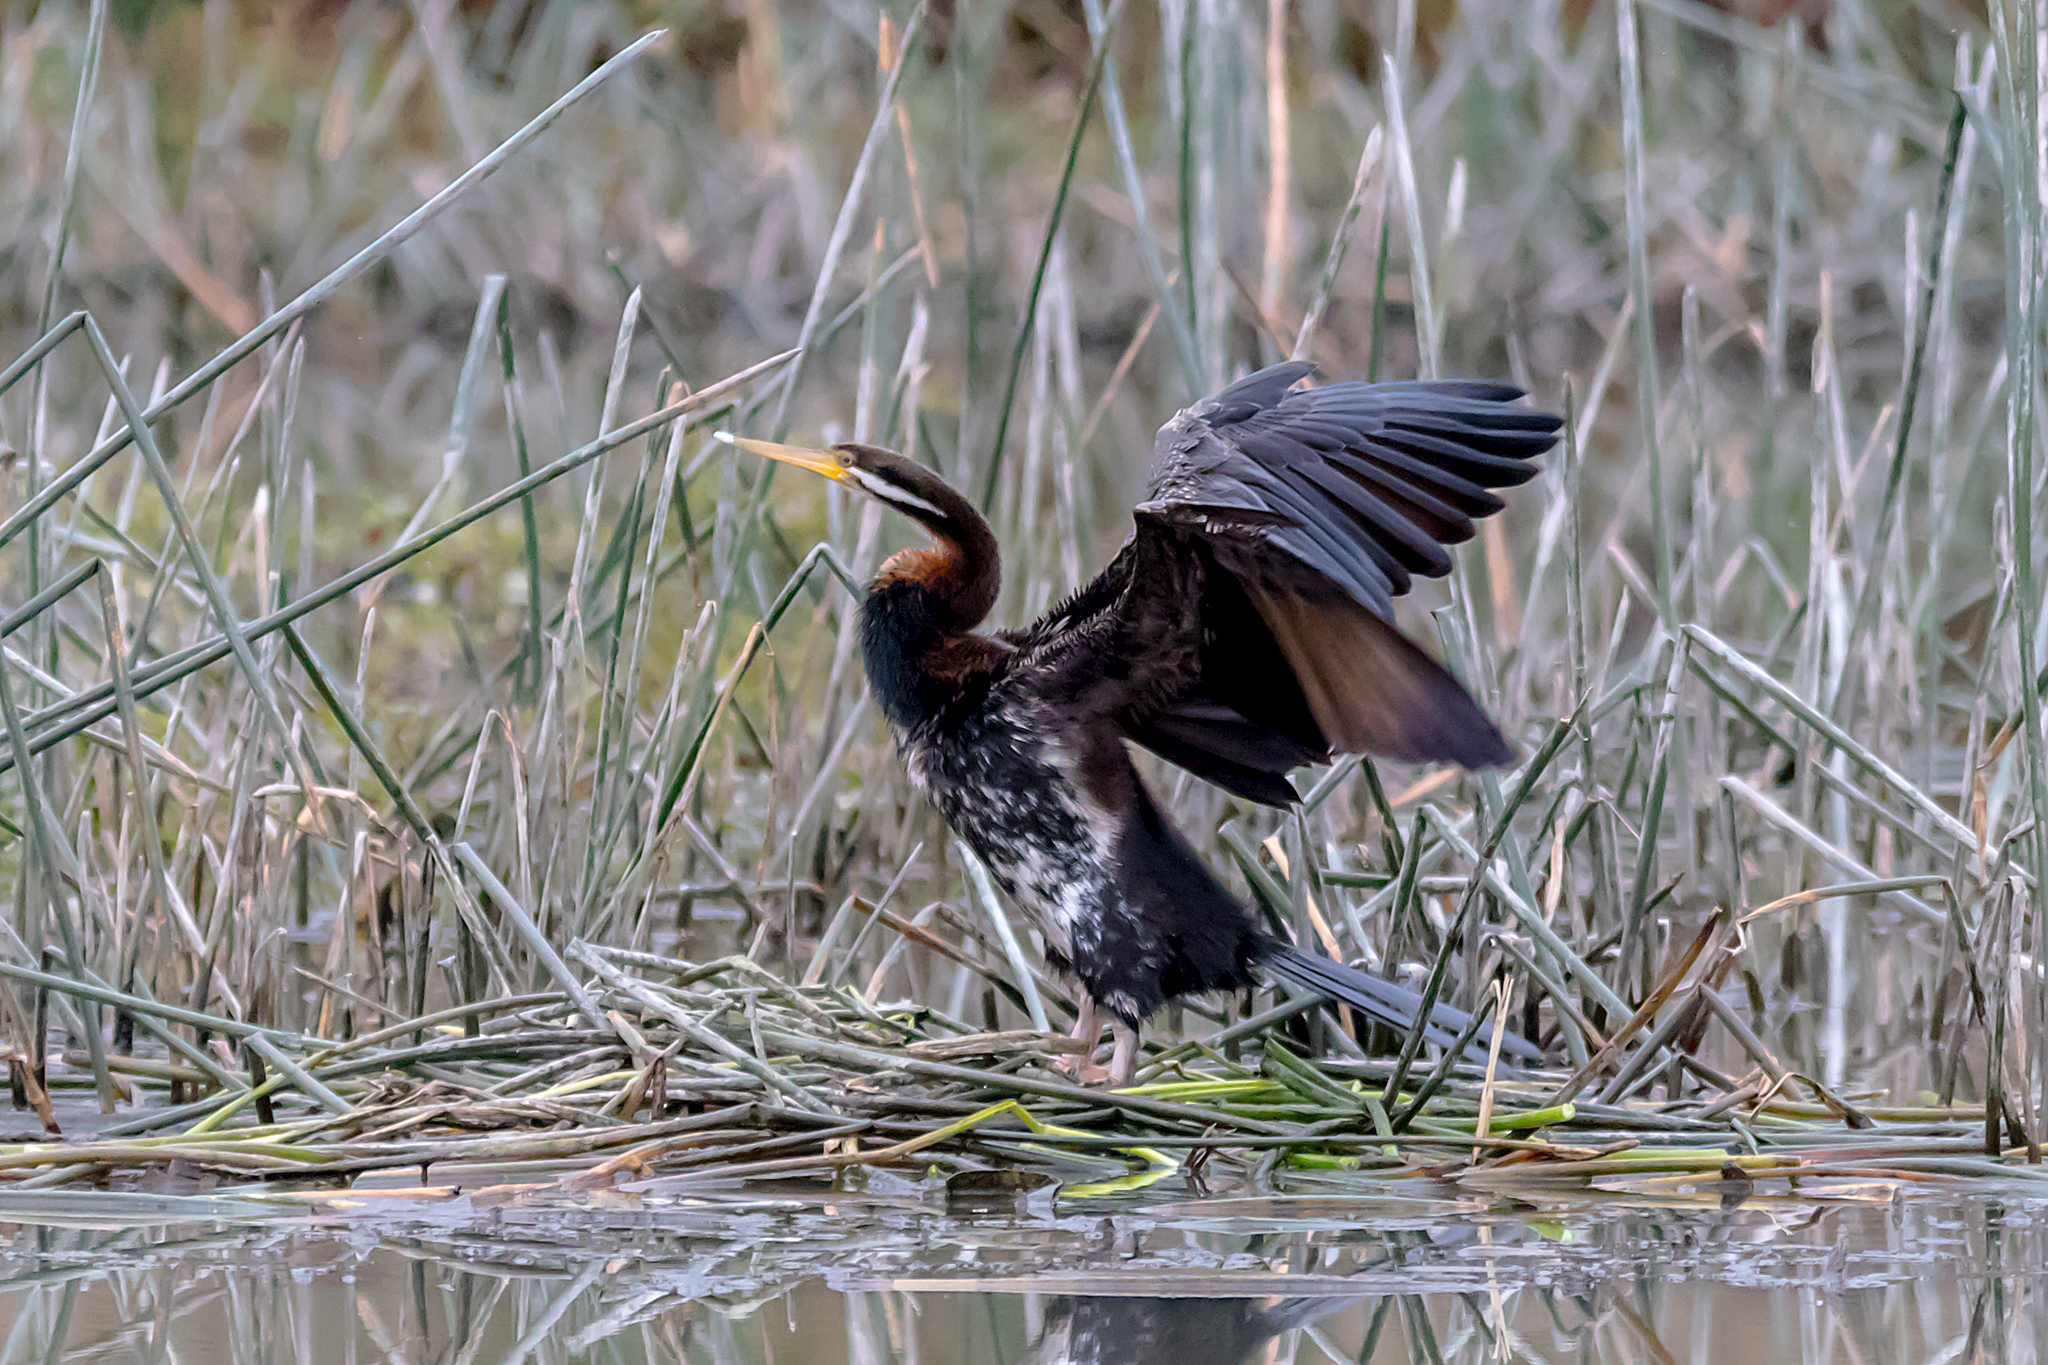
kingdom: Animalia
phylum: Chordata
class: Aves
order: Suliformes
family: Anhingidae
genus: Anhinga
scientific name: Anhinga novaehollandiae
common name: Australasian darter
